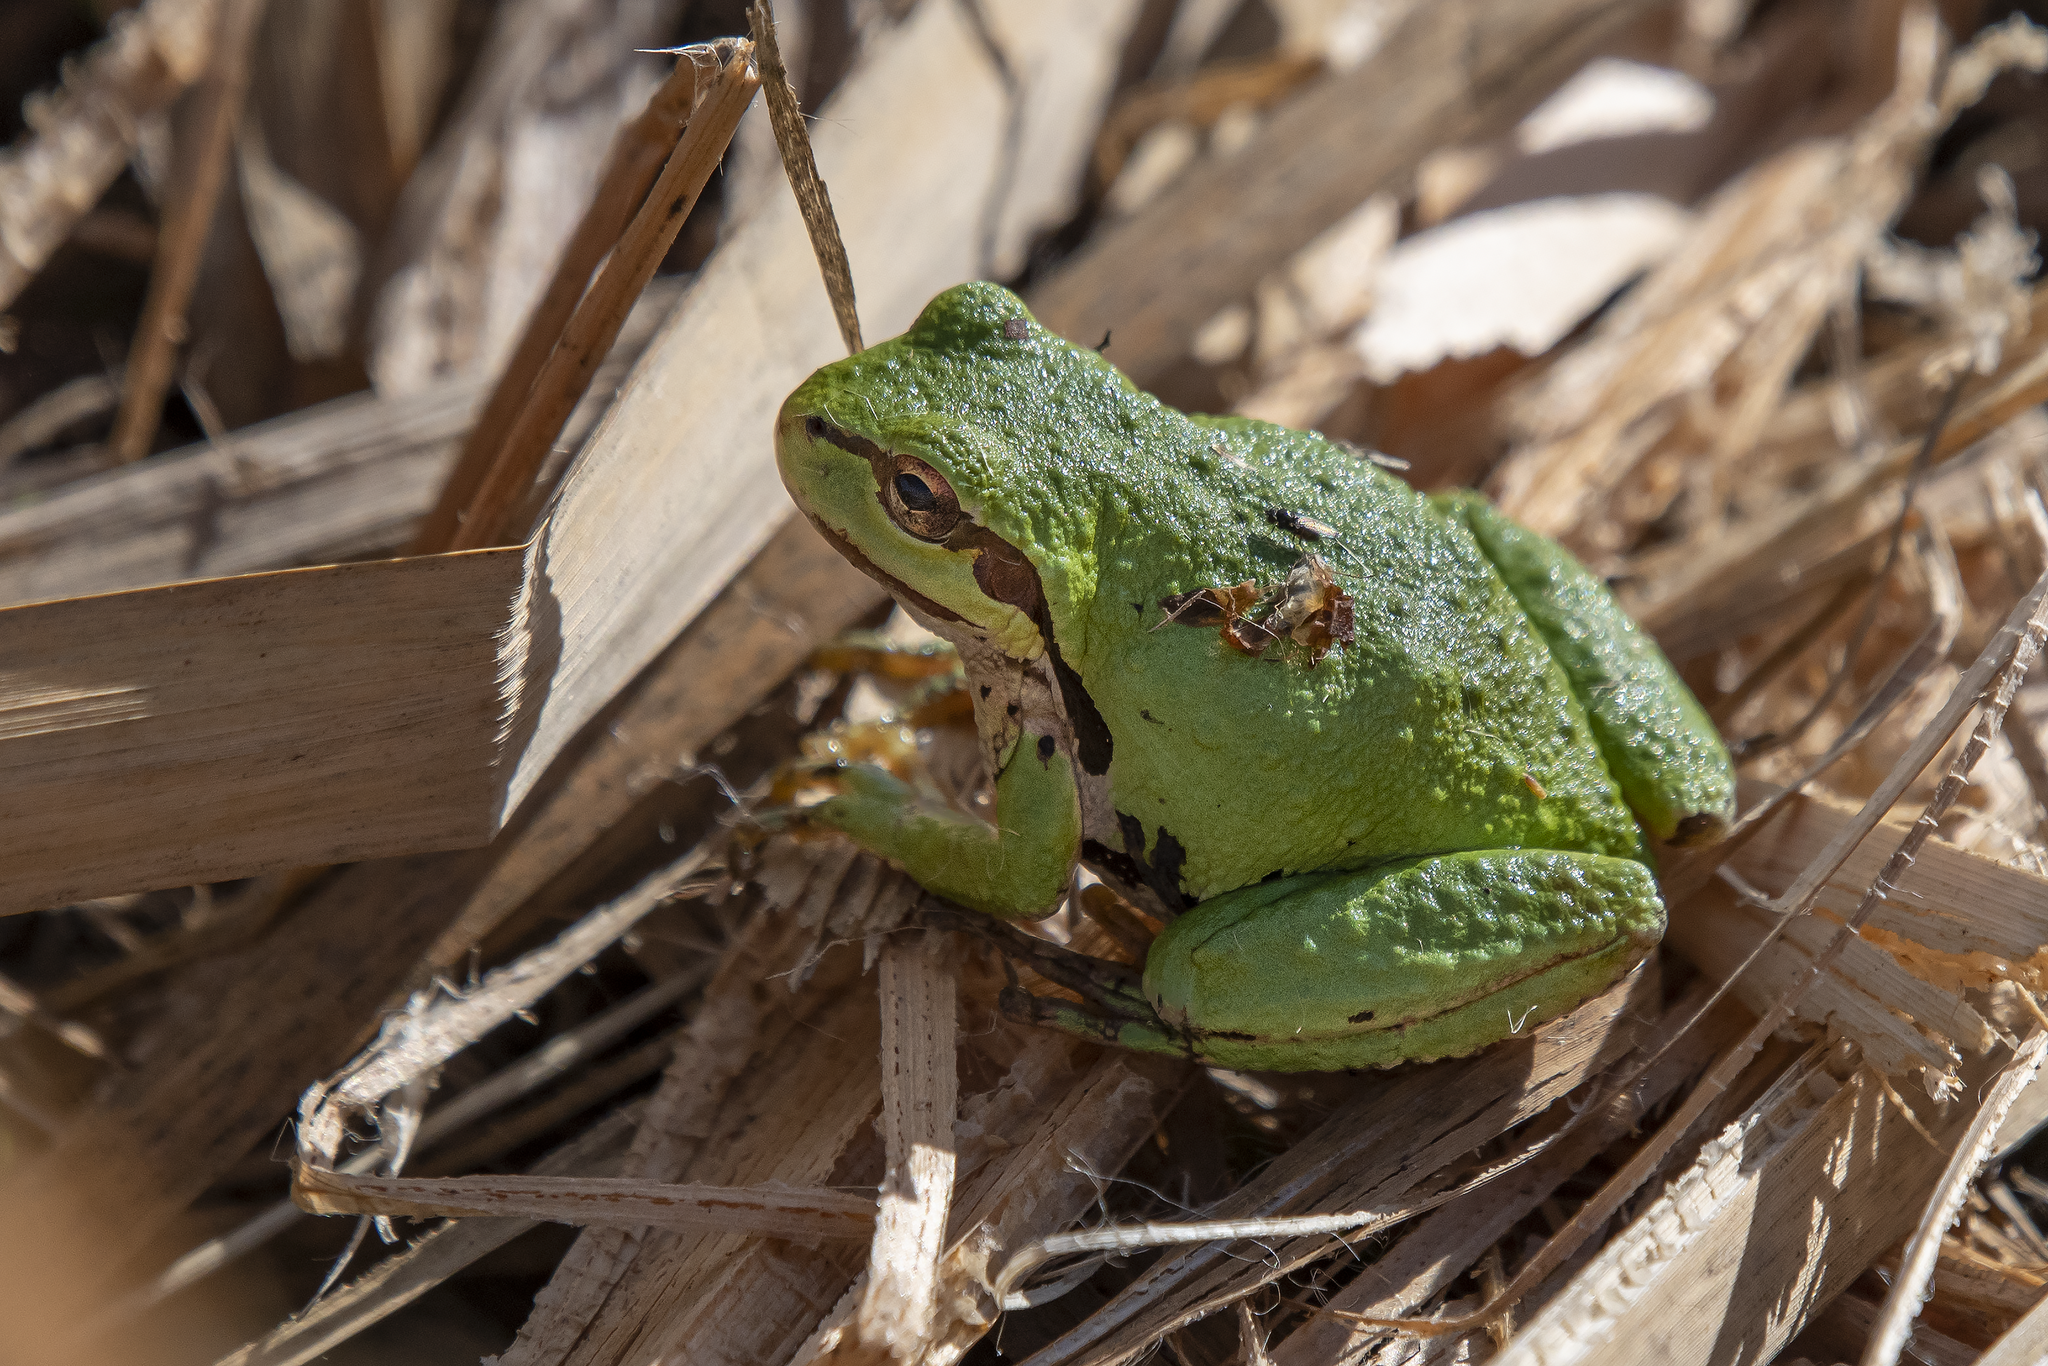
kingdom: Animalia
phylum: Chordata
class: Amphibia
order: Anura
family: Hylidae
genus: Pseudacris
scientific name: Pseudacris regilla
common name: Pacific chorus frog
